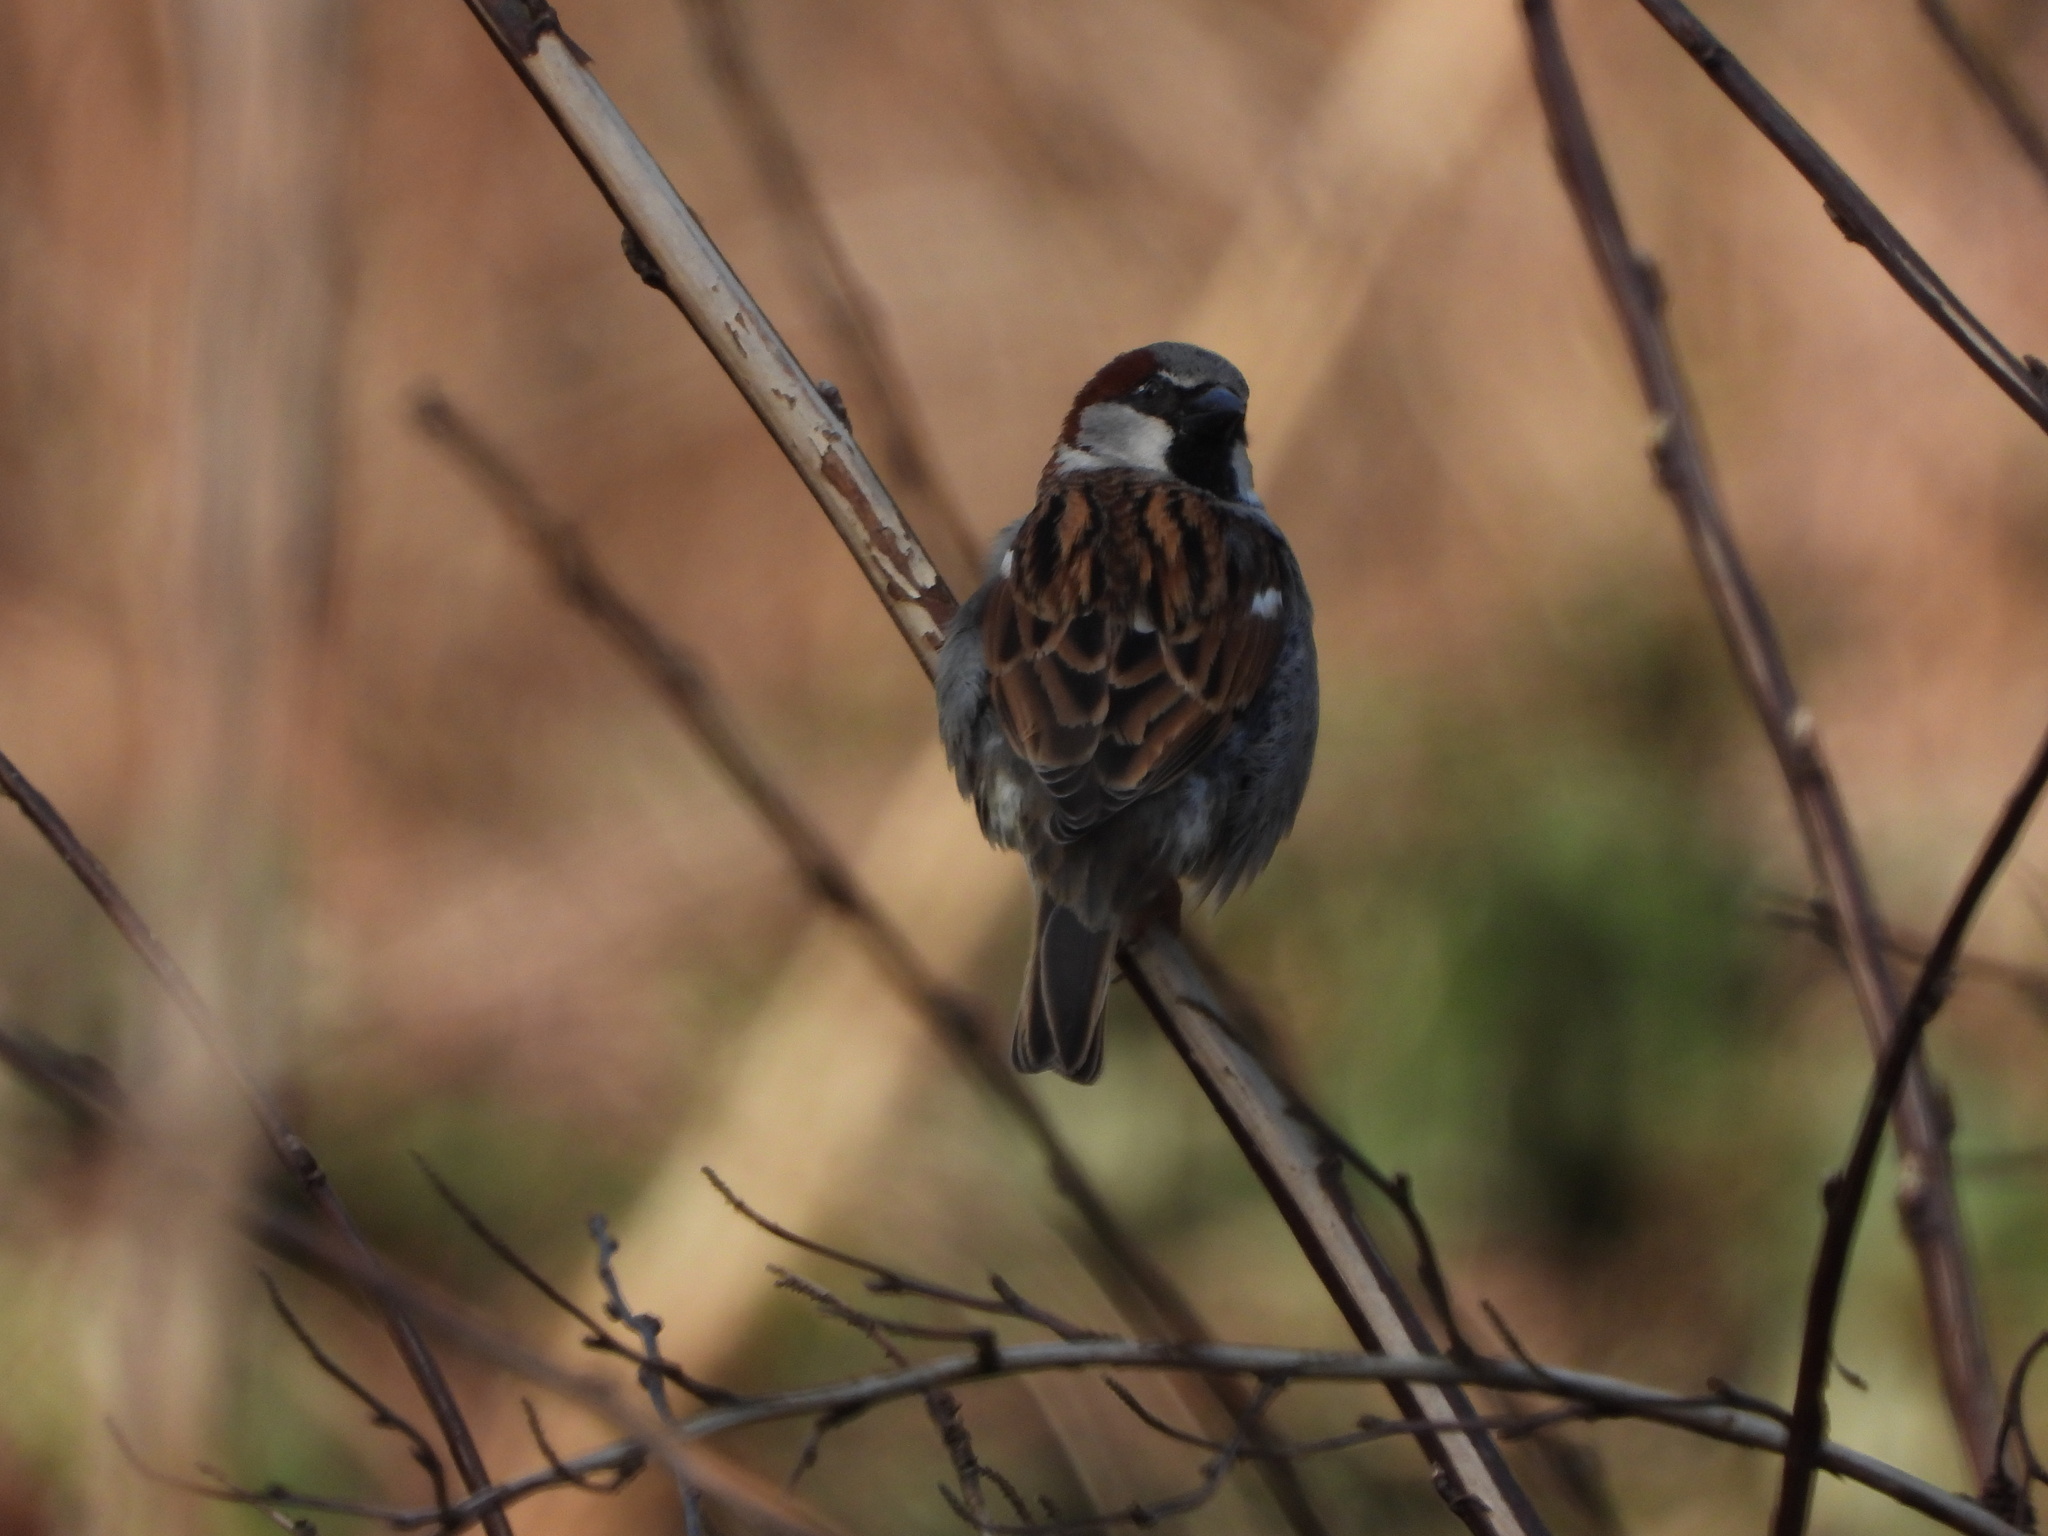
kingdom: Animalia
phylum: Chordata
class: Aves
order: Passeriformes
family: Passeridae
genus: Passer
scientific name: Passer domesticus
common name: House sparrow
